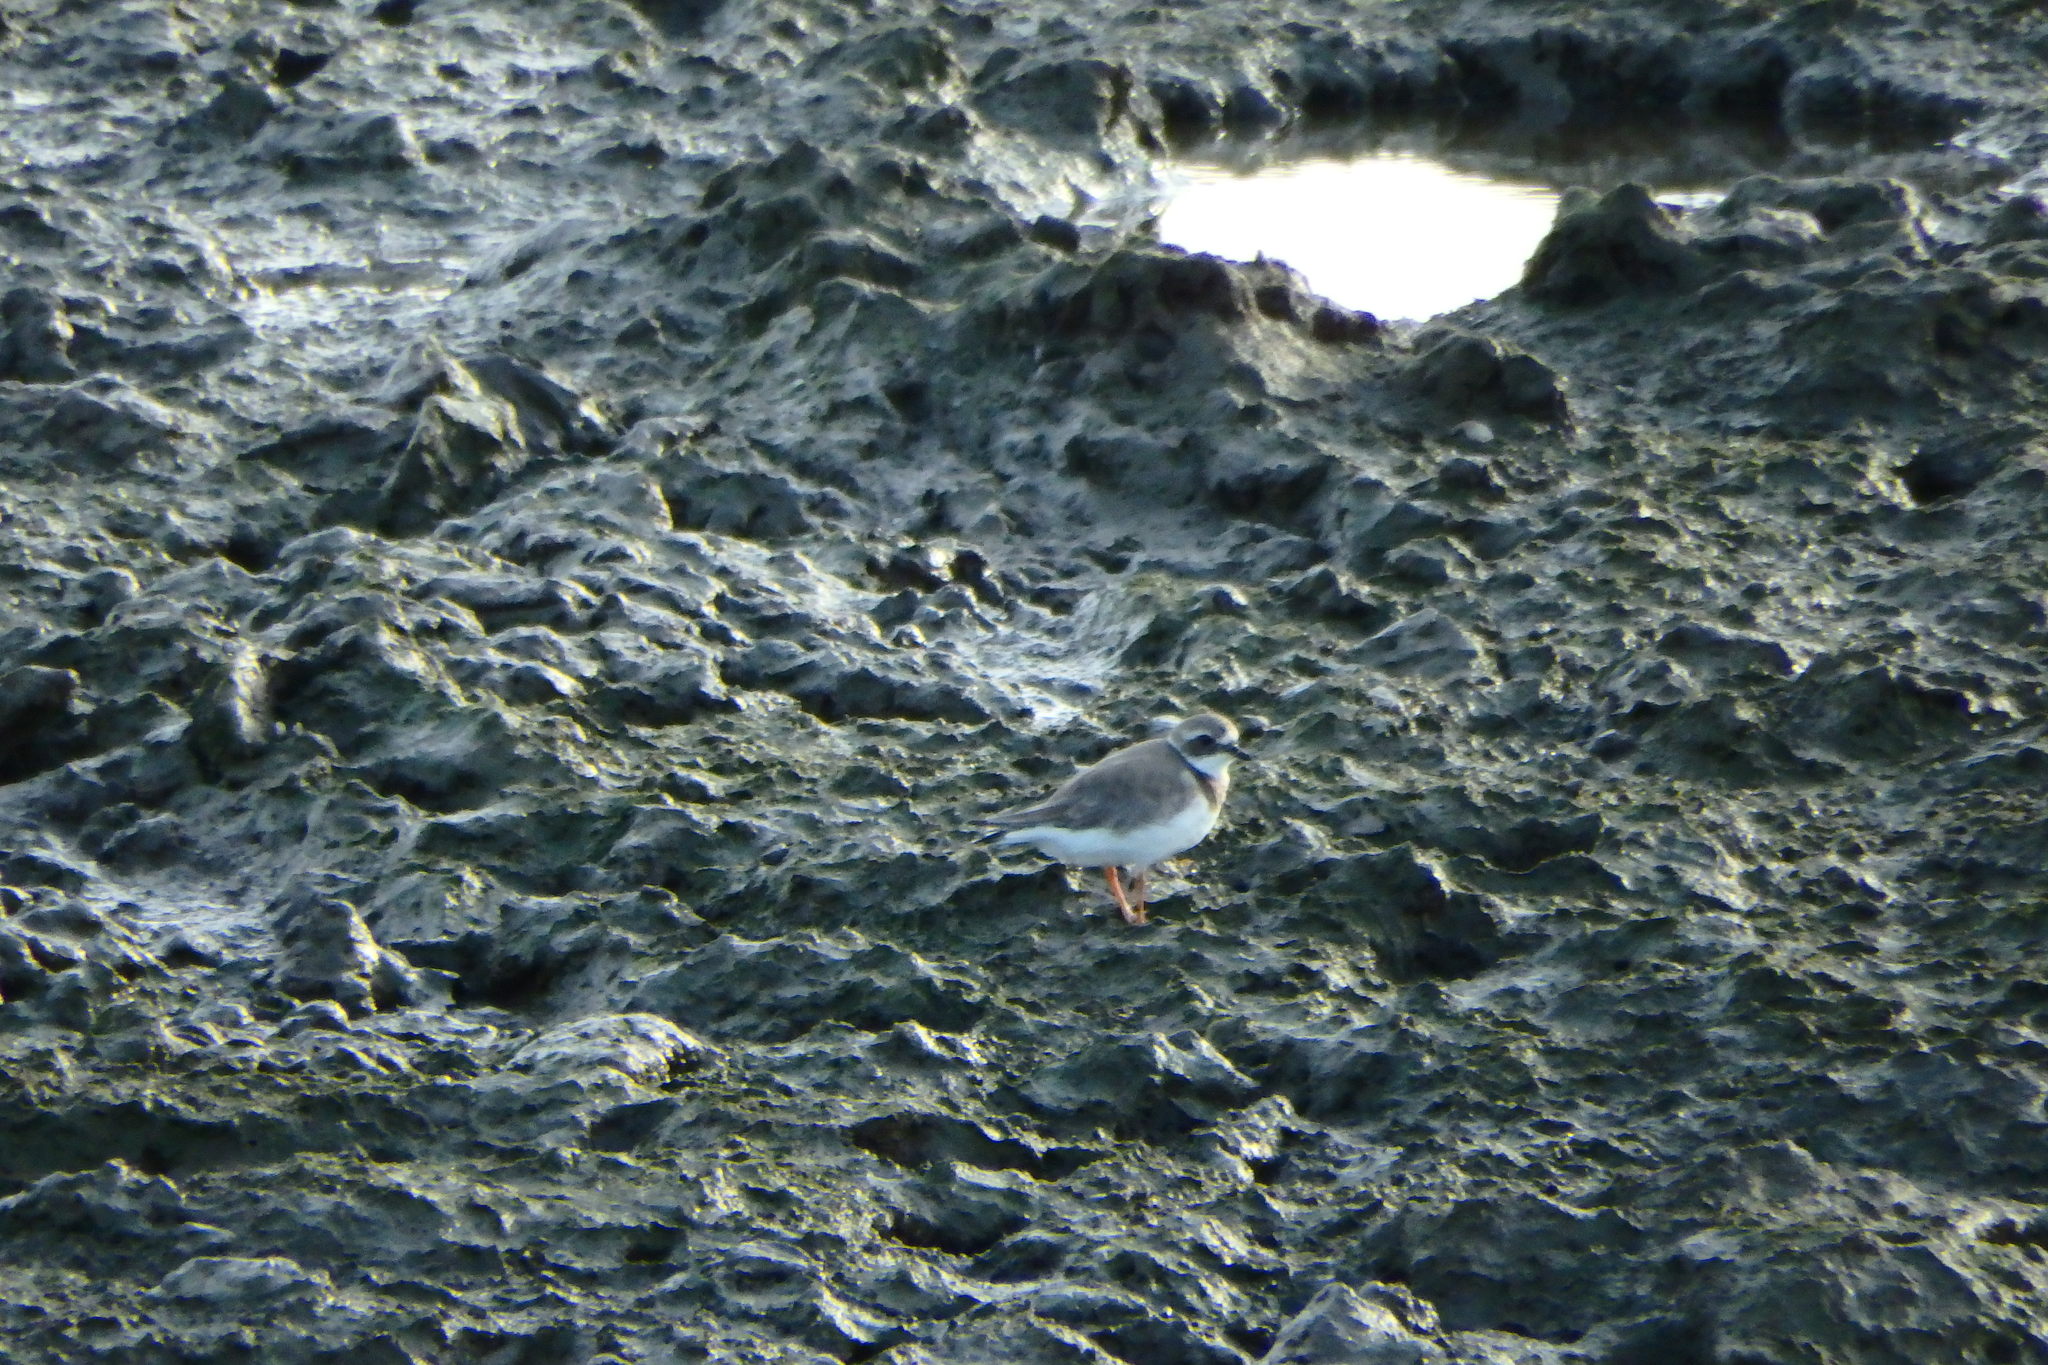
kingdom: Animalia
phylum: Chordata
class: Aves
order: Charadriiformes
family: Charadriidae
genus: Charadrius
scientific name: Charadrius hiaticula
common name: Common ringed plover
